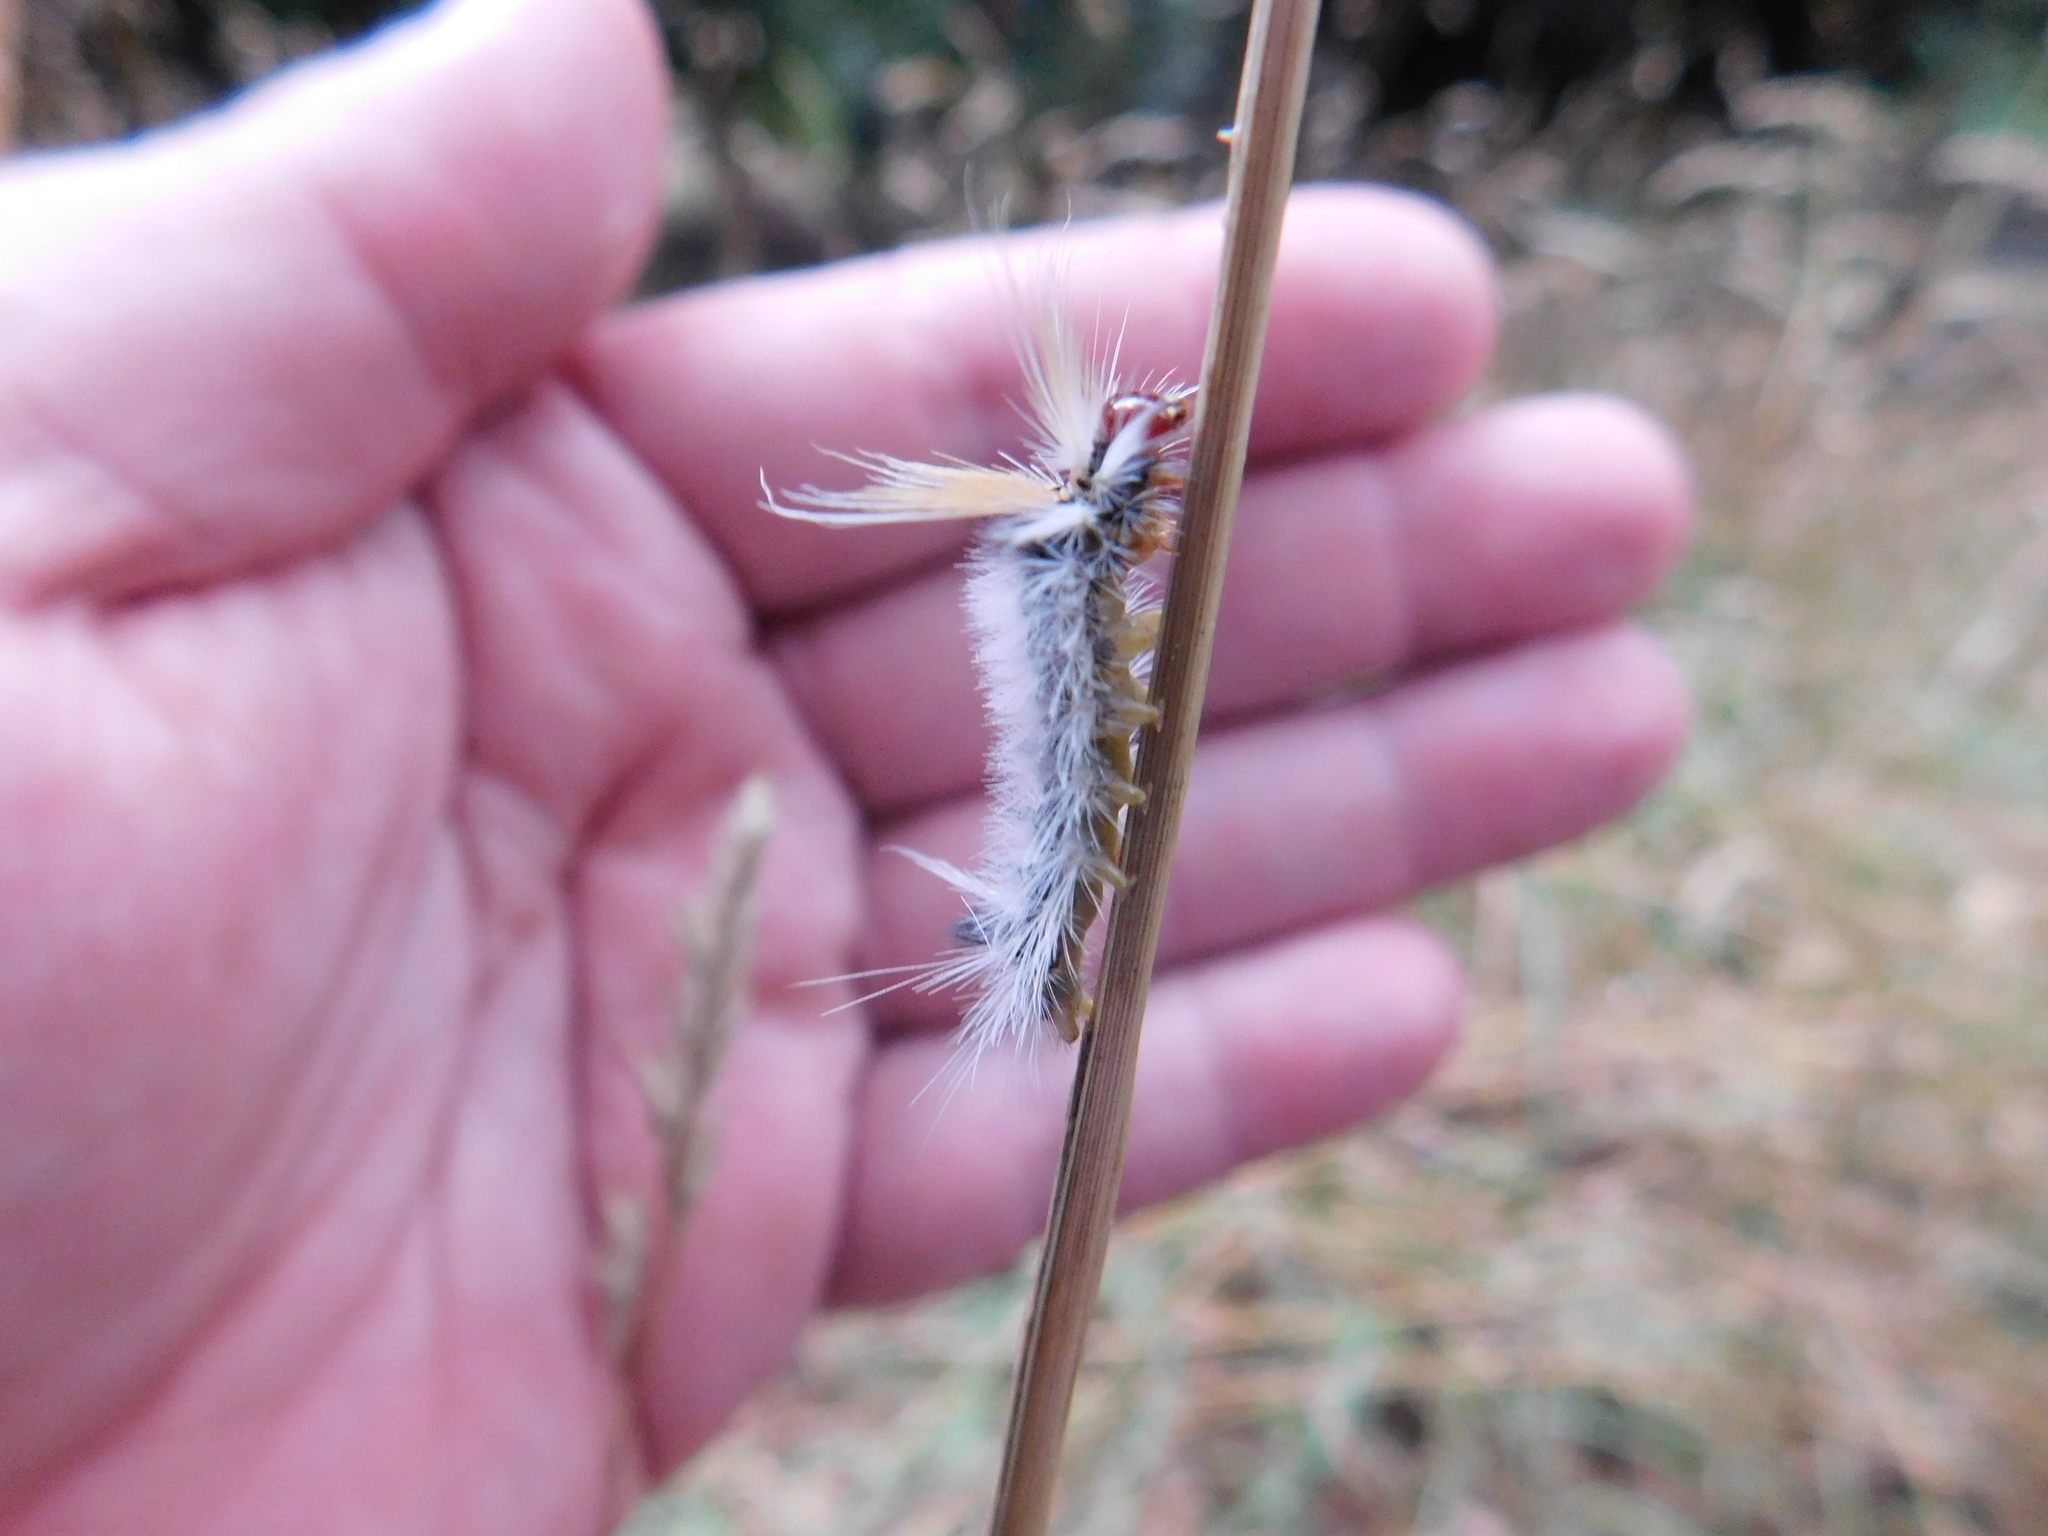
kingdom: Animalia
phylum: Arthropoda
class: Insecta
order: Lepidoptera
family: Erebidae
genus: Halysidota
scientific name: Halysidota ruscheweyhi
